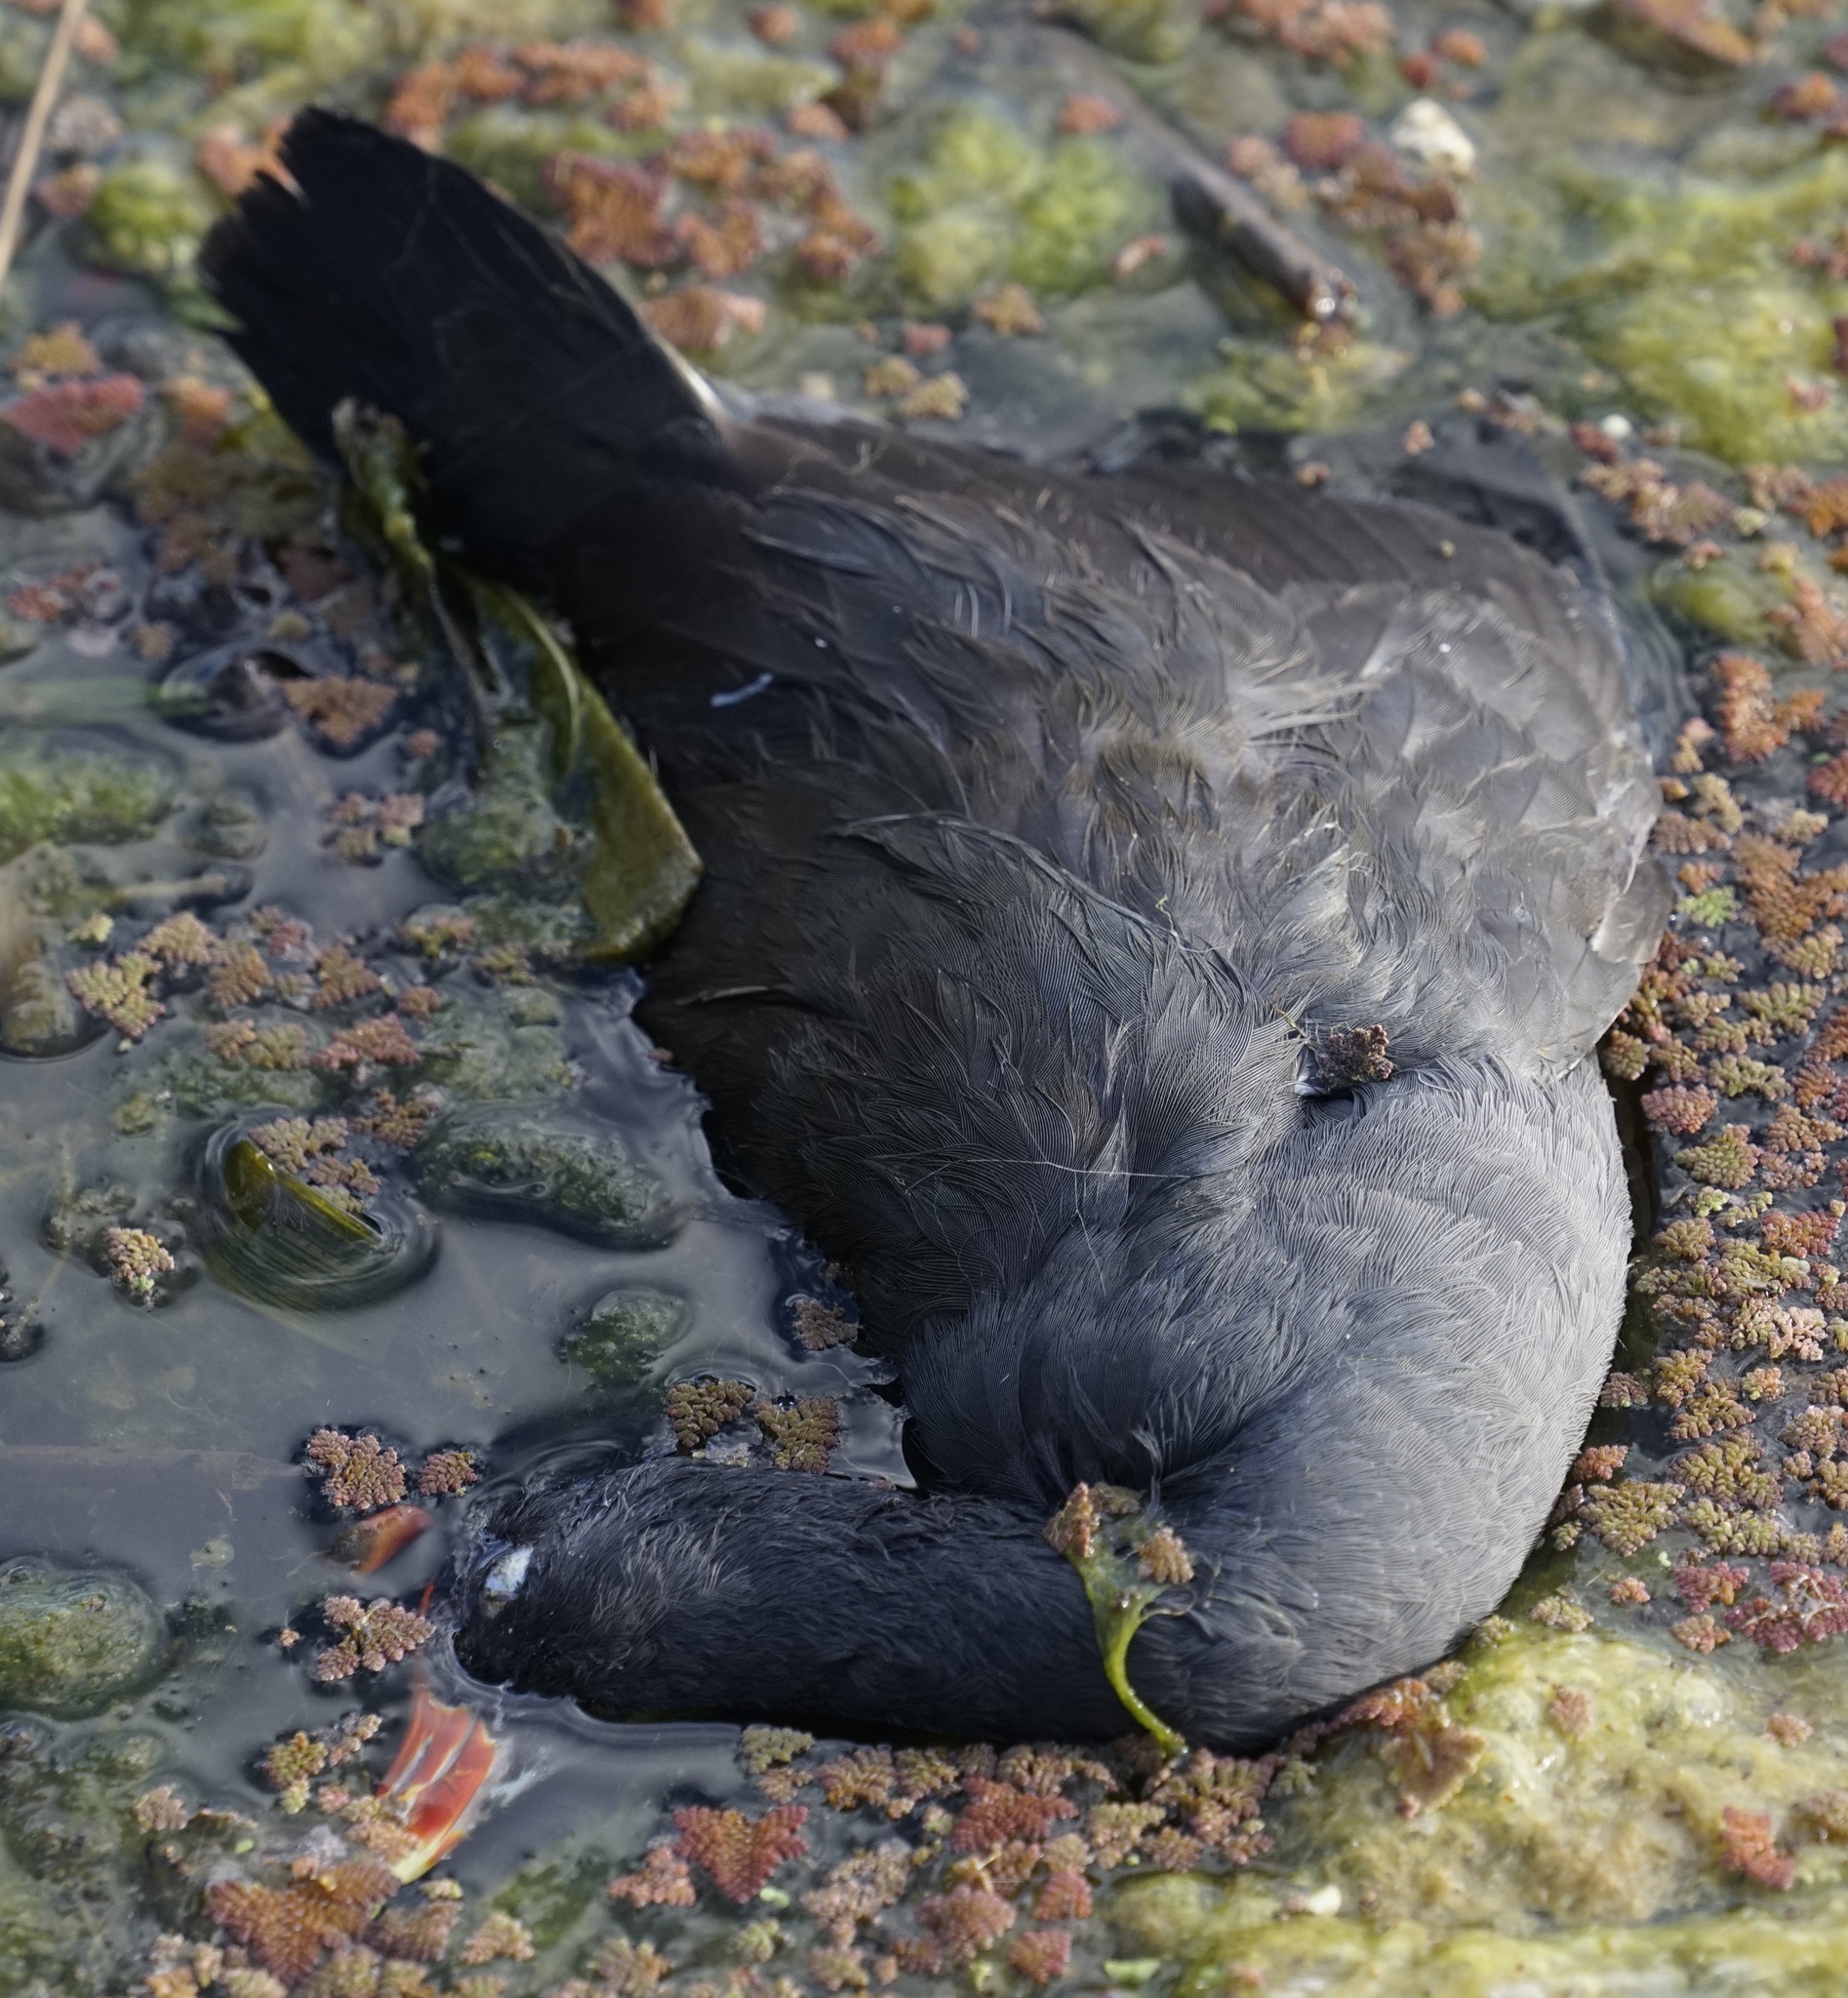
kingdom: Animalia
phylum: Chordata
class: Aves
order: Gruiformes
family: Rallidae
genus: Gallinula
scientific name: Gallinula tenebrosa
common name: Dusky moorhen
